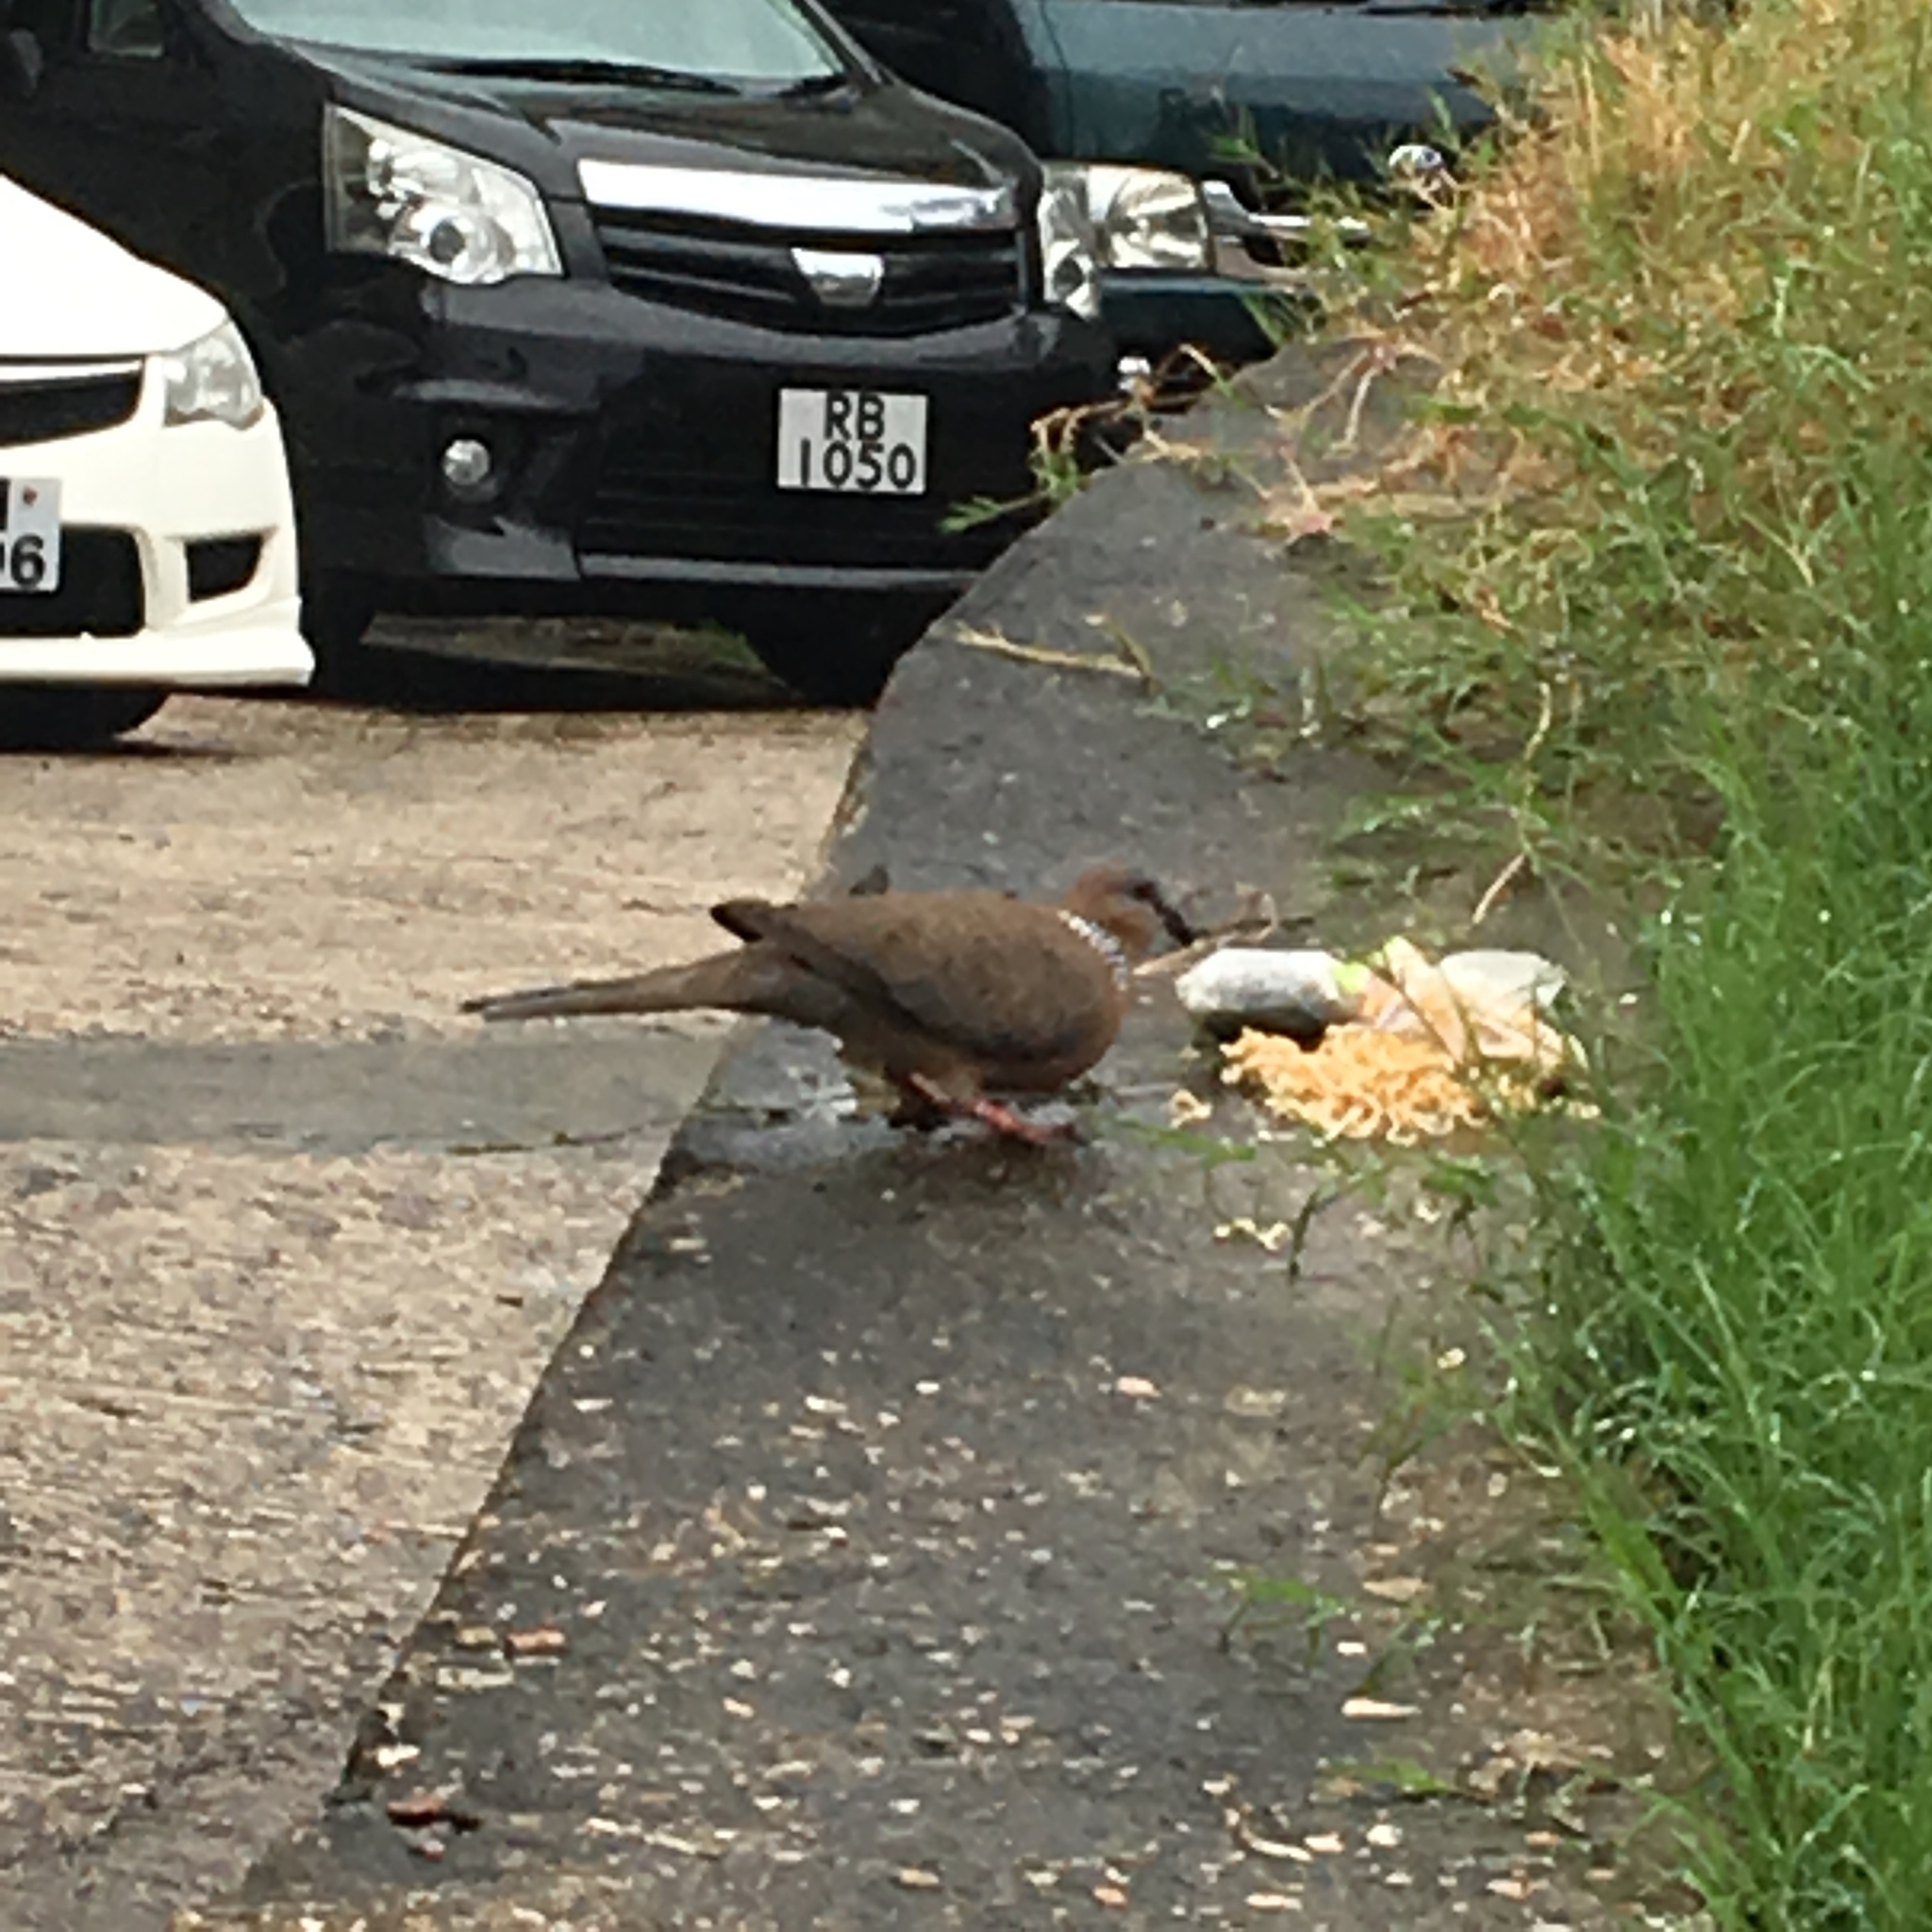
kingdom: Animalia
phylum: Chordata
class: Aves
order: Columbiformes
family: Columbidae
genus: Spilopelia
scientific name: Spilopelia chinensis
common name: Spotted dove
